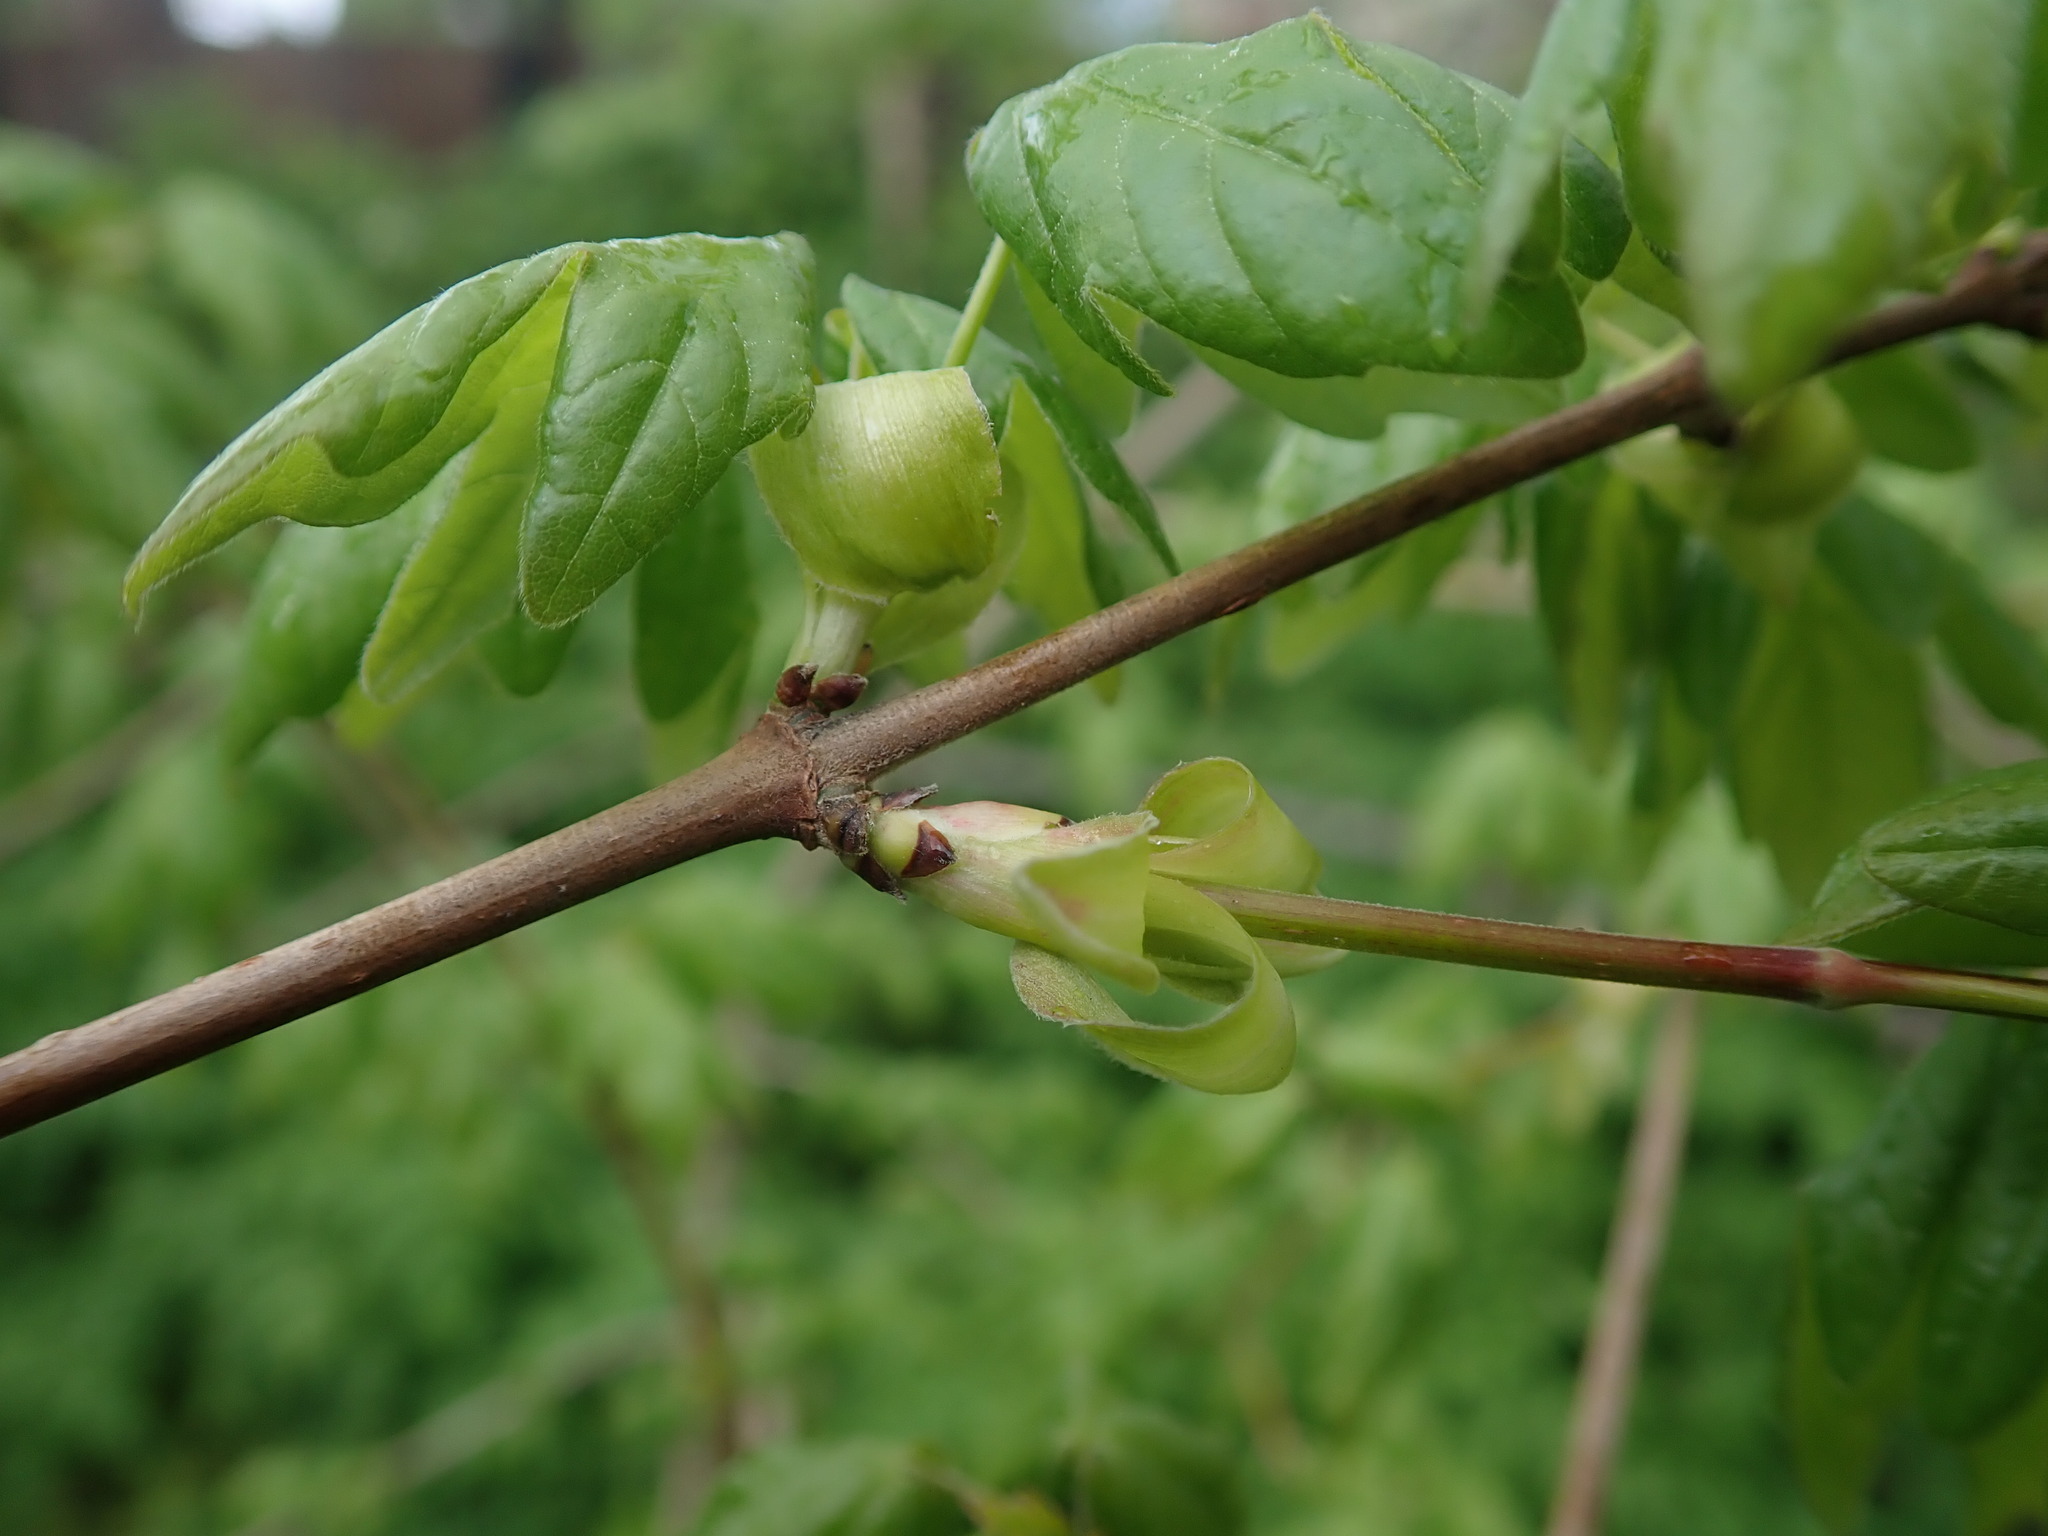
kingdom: Plantae
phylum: Tracheophyta
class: Magnoliopsida
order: Sapindales
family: Sapindaceae
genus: Acer
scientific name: Acer campestre
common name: Field maple
